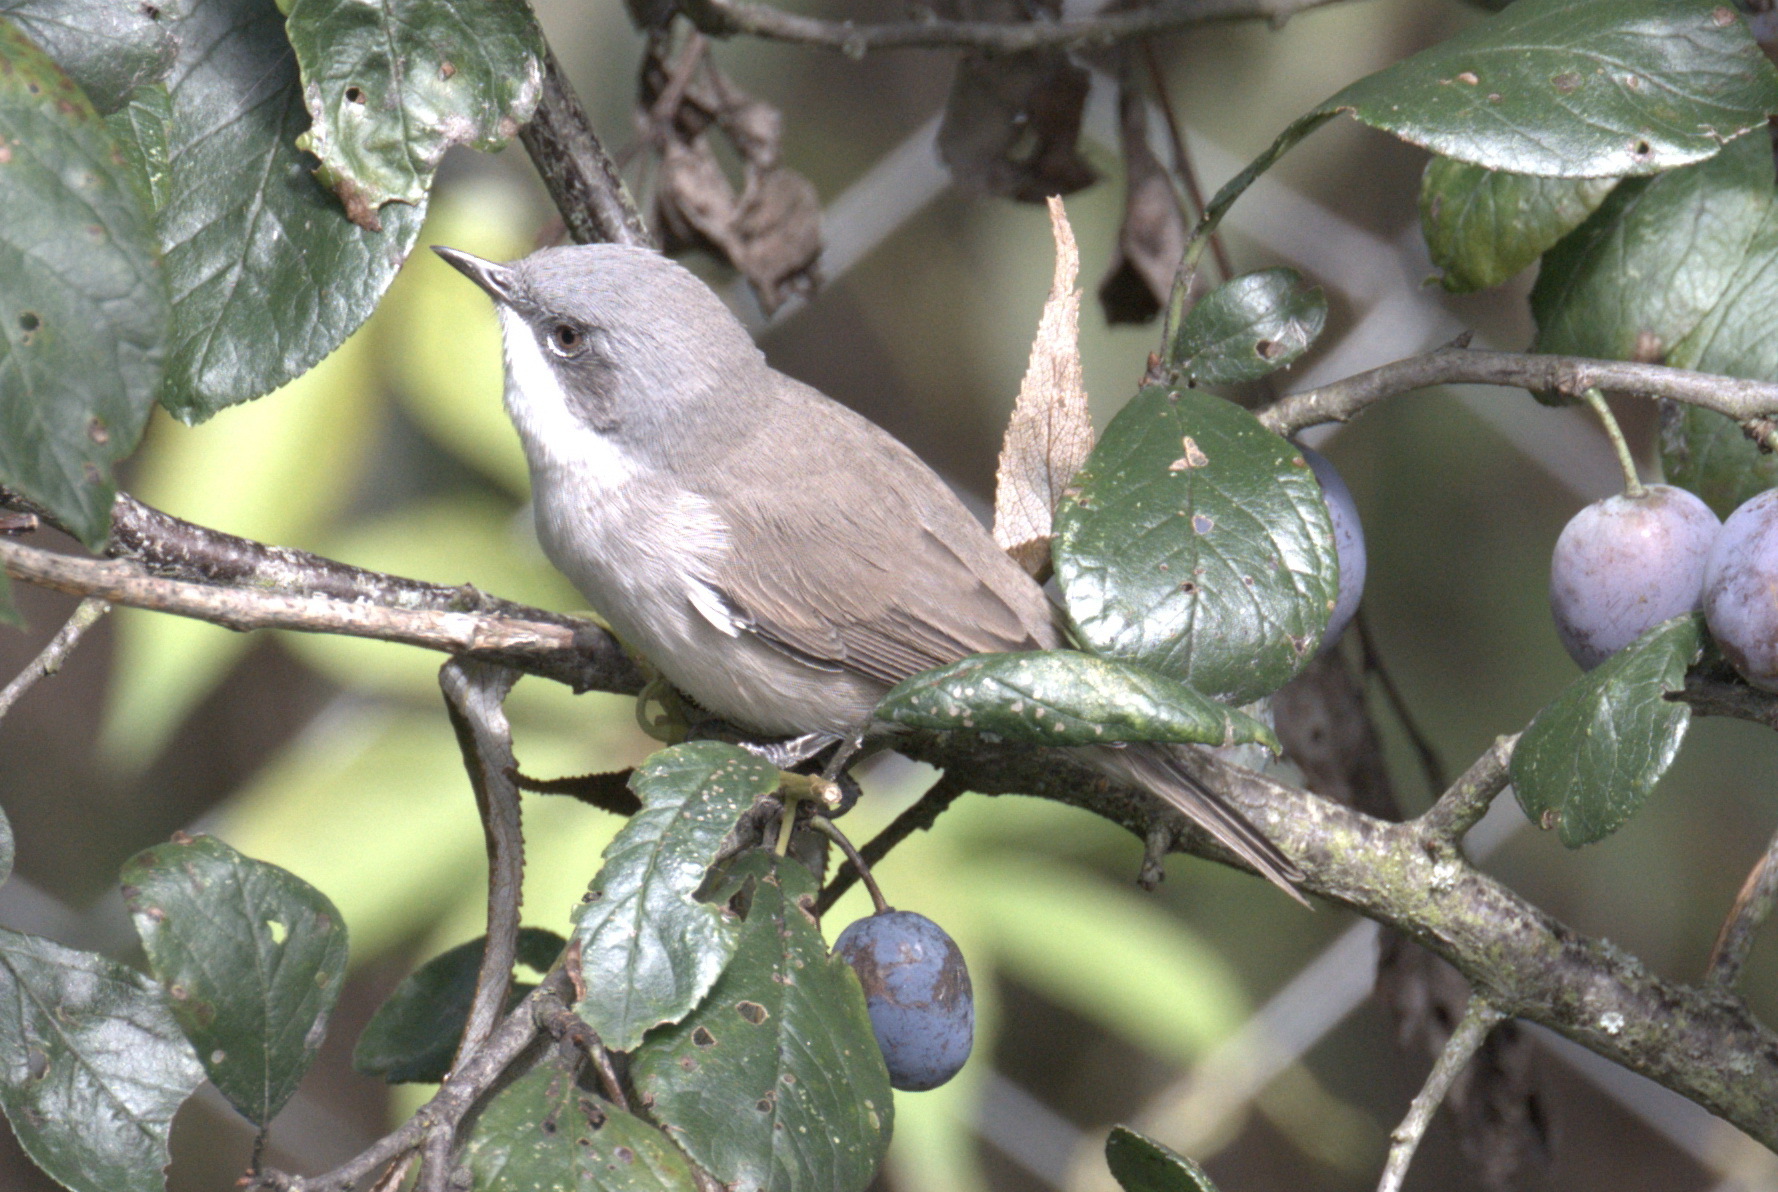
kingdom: Animalia
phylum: Chordata
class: Aves
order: Passeriformes
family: Sylviidae
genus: Sylvia
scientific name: Sylvia curruca
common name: Lesser whitethroat
